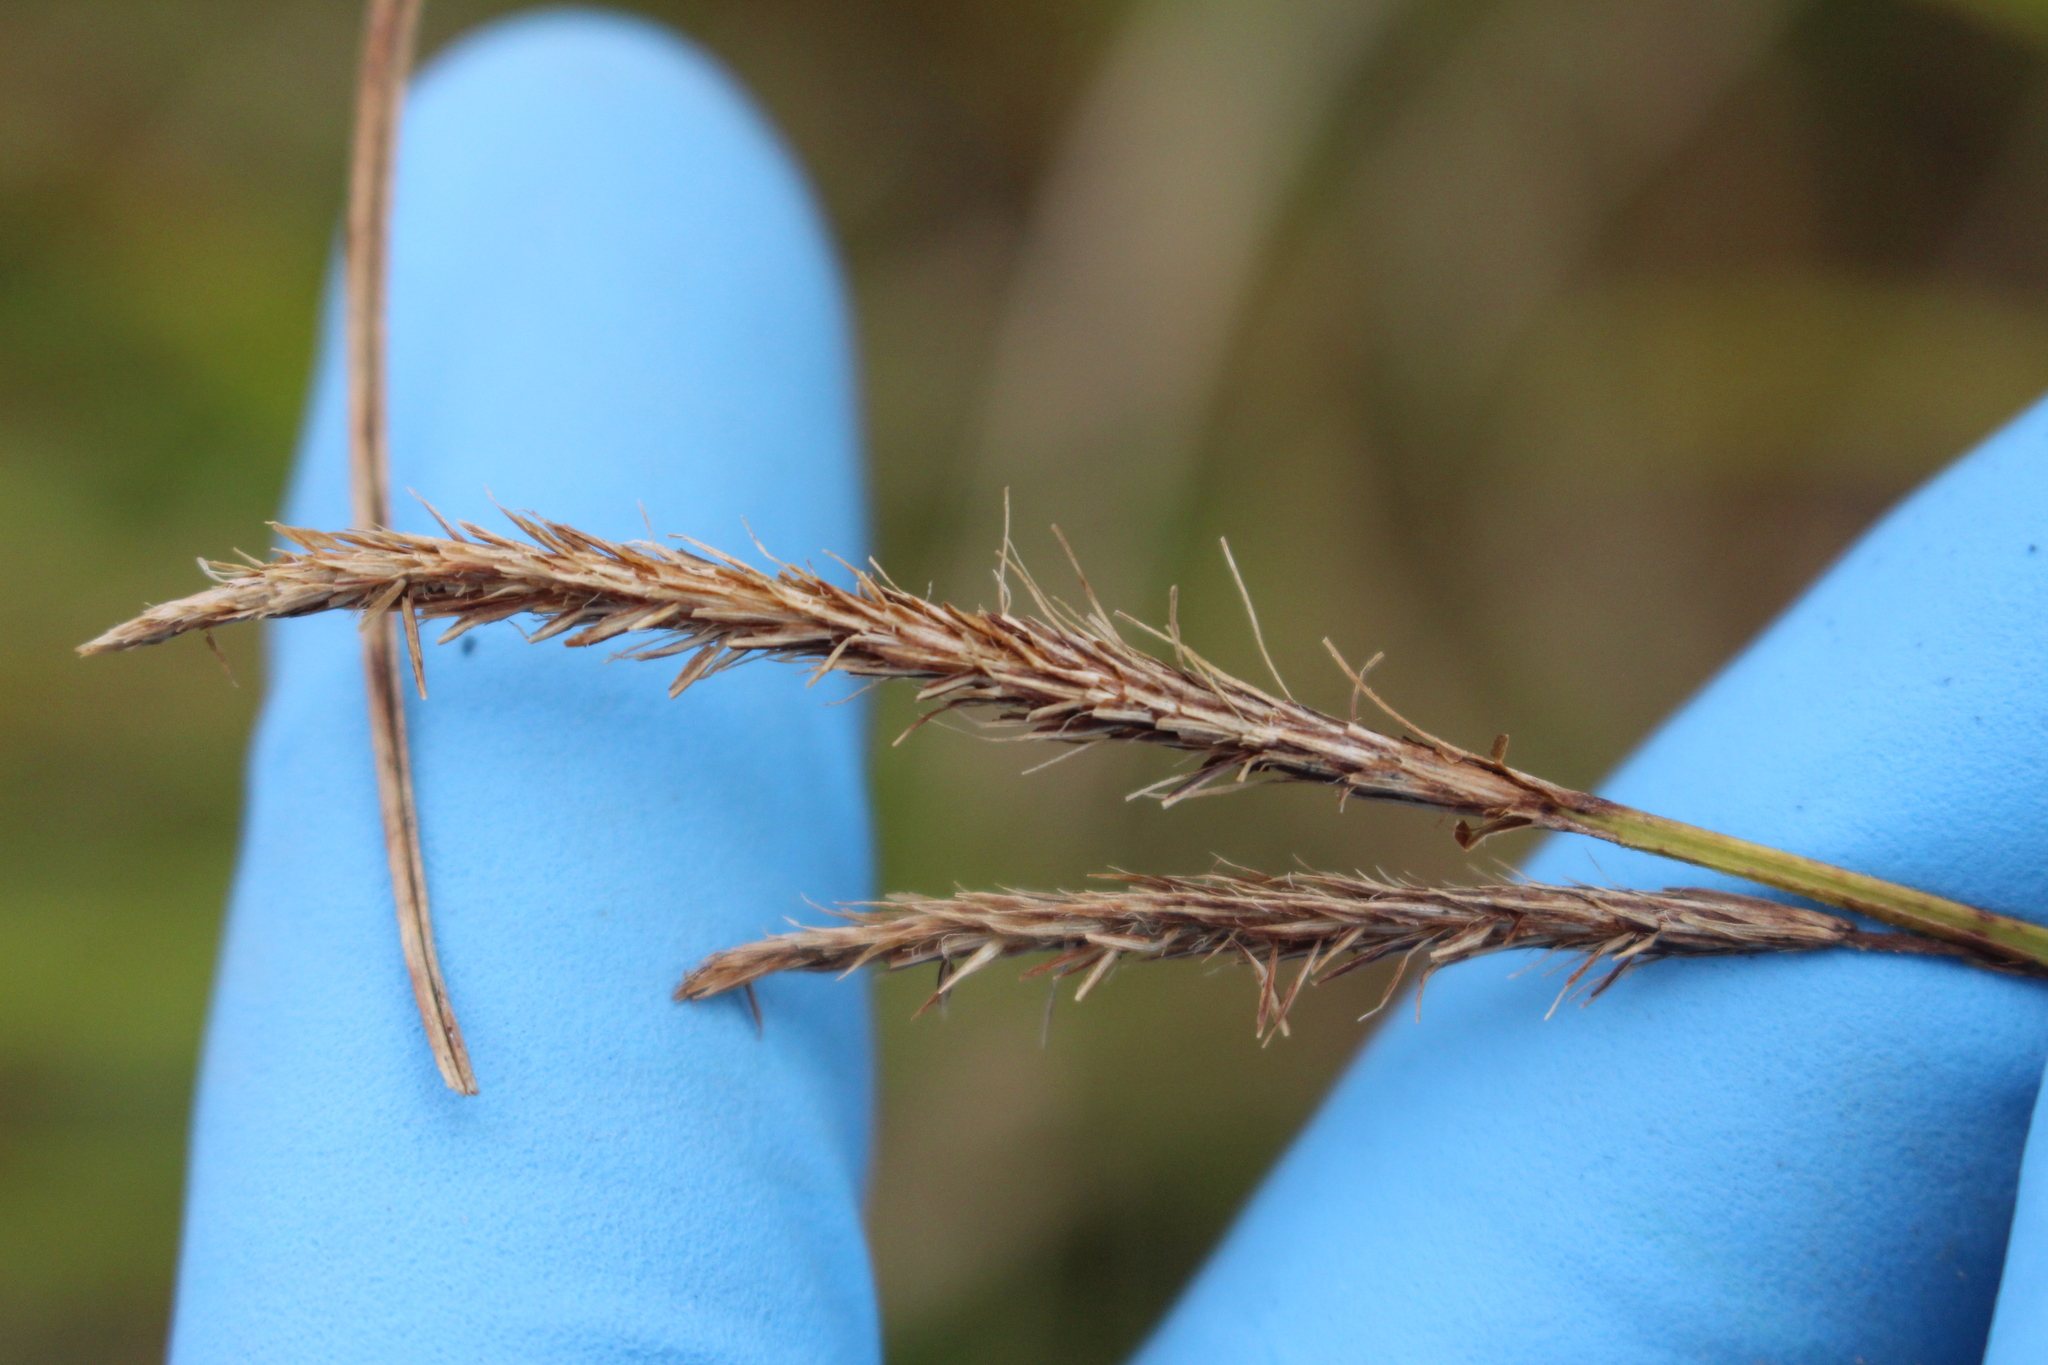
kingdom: Plantae
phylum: Tracheophyta
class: Liliopsida
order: Poales
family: Cyperaceae
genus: Carex
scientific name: Carex geminata
